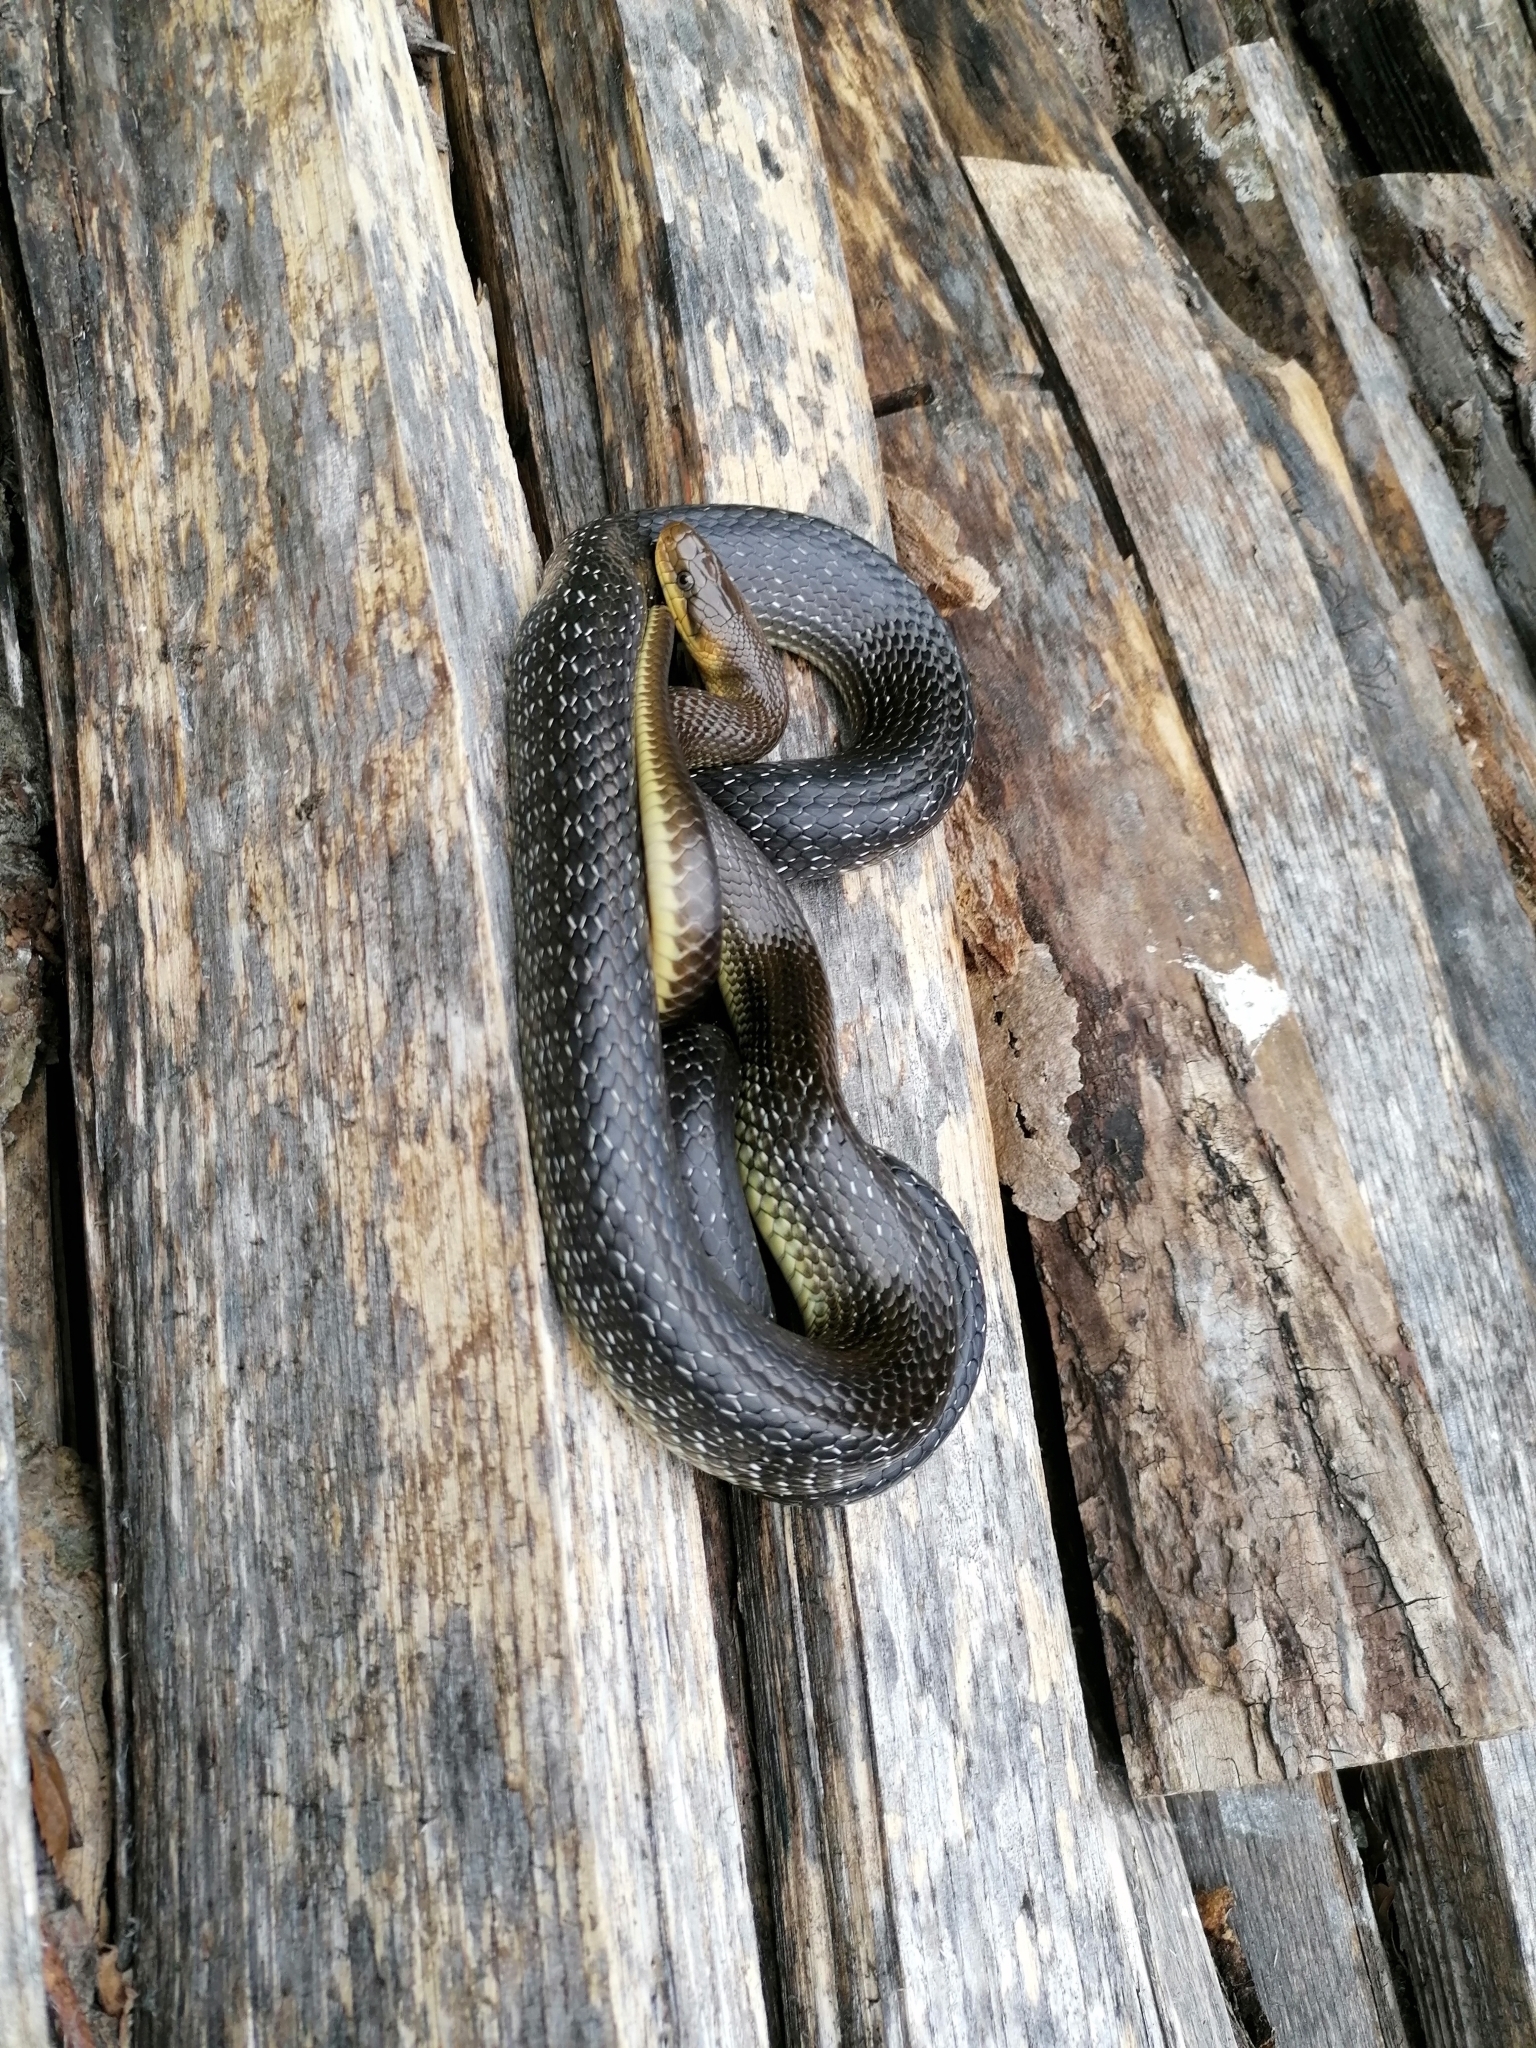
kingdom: Animalia
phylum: Chordata
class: Squamata
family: Colubridae
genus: Zamenis
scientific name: Zamenis longissimus
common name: Aesculapean snake
